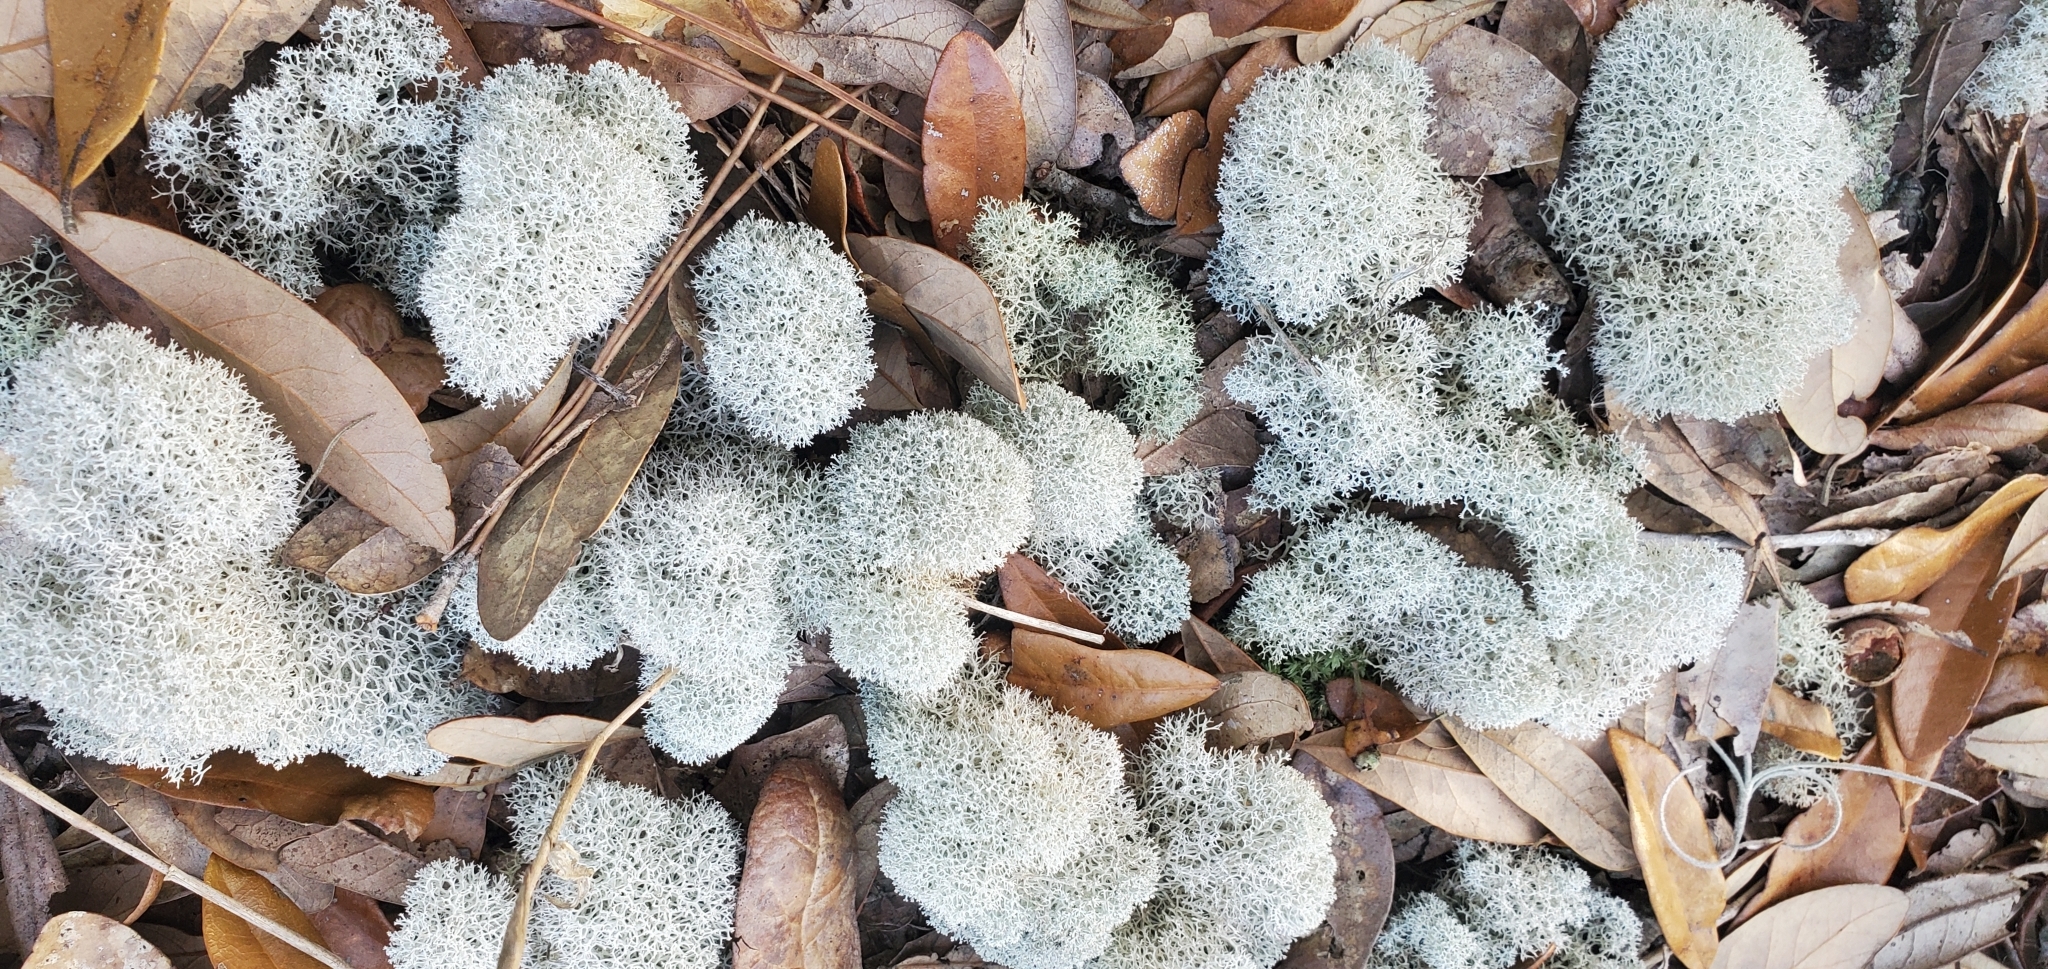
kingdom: Fungi
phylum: Ascomycota
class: Lecanoromycetes
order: Lecanorales
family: Cladoniaceae
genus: Cladonia
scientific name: Cladonia evansii
